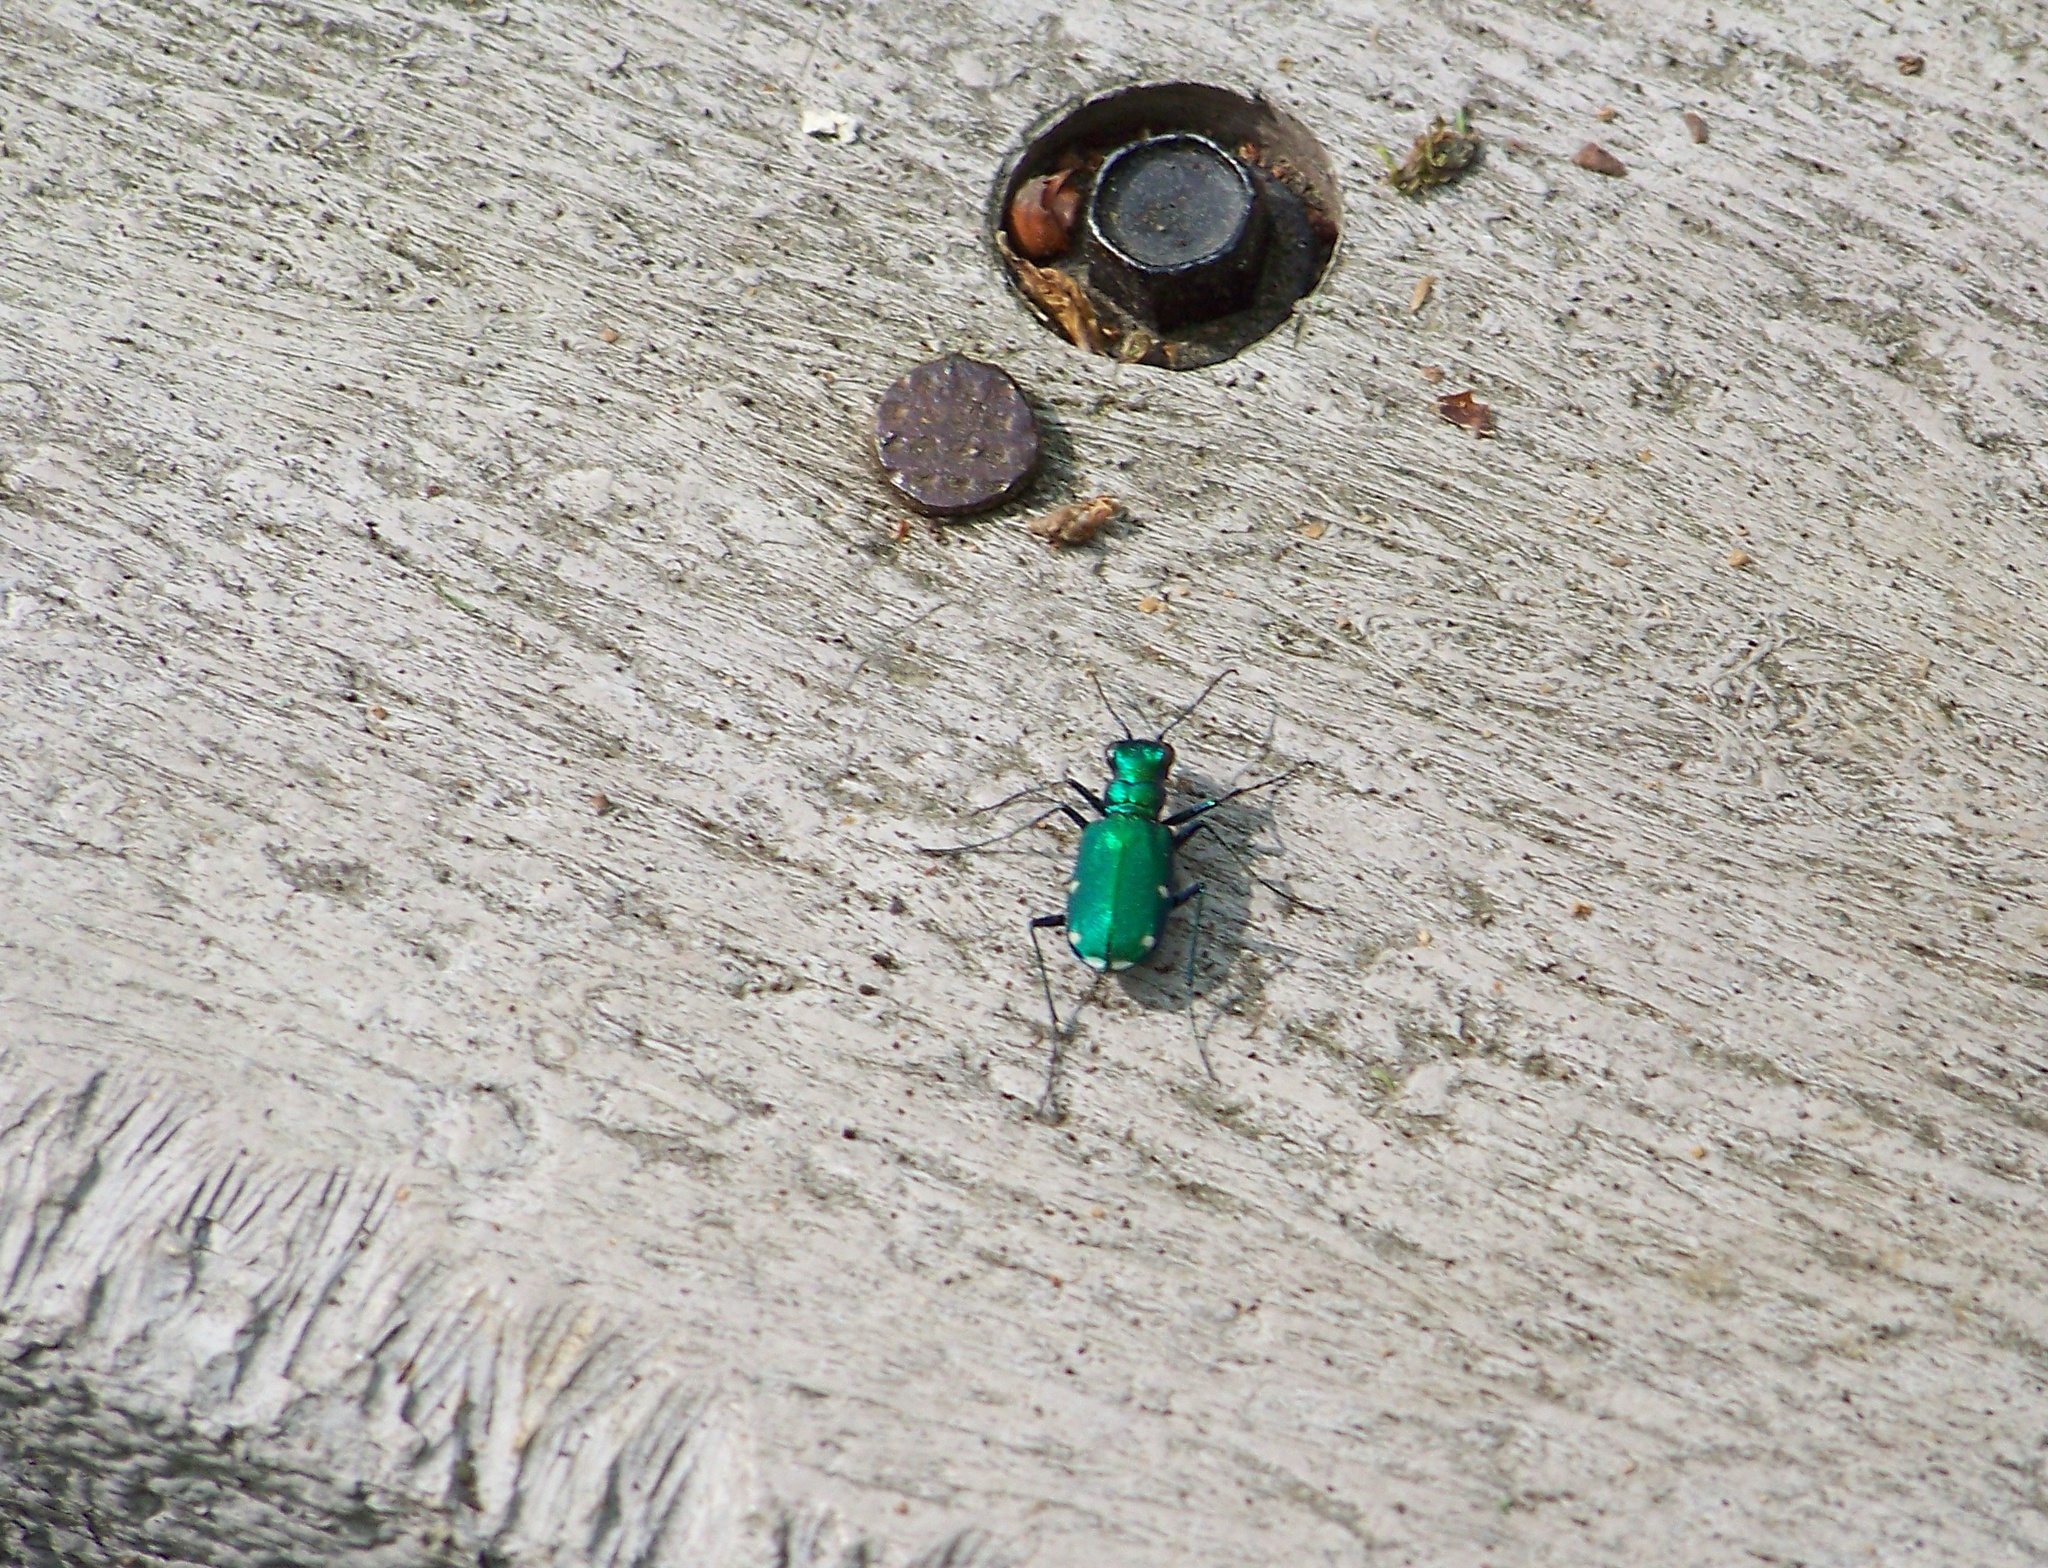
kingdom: Animalia
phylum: Arthropoda
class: Insecta
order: Coleoptera
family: Carabidae
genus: Cicindela
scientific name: Cicindela sexguttata
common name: Six-spotted tiger beetle
